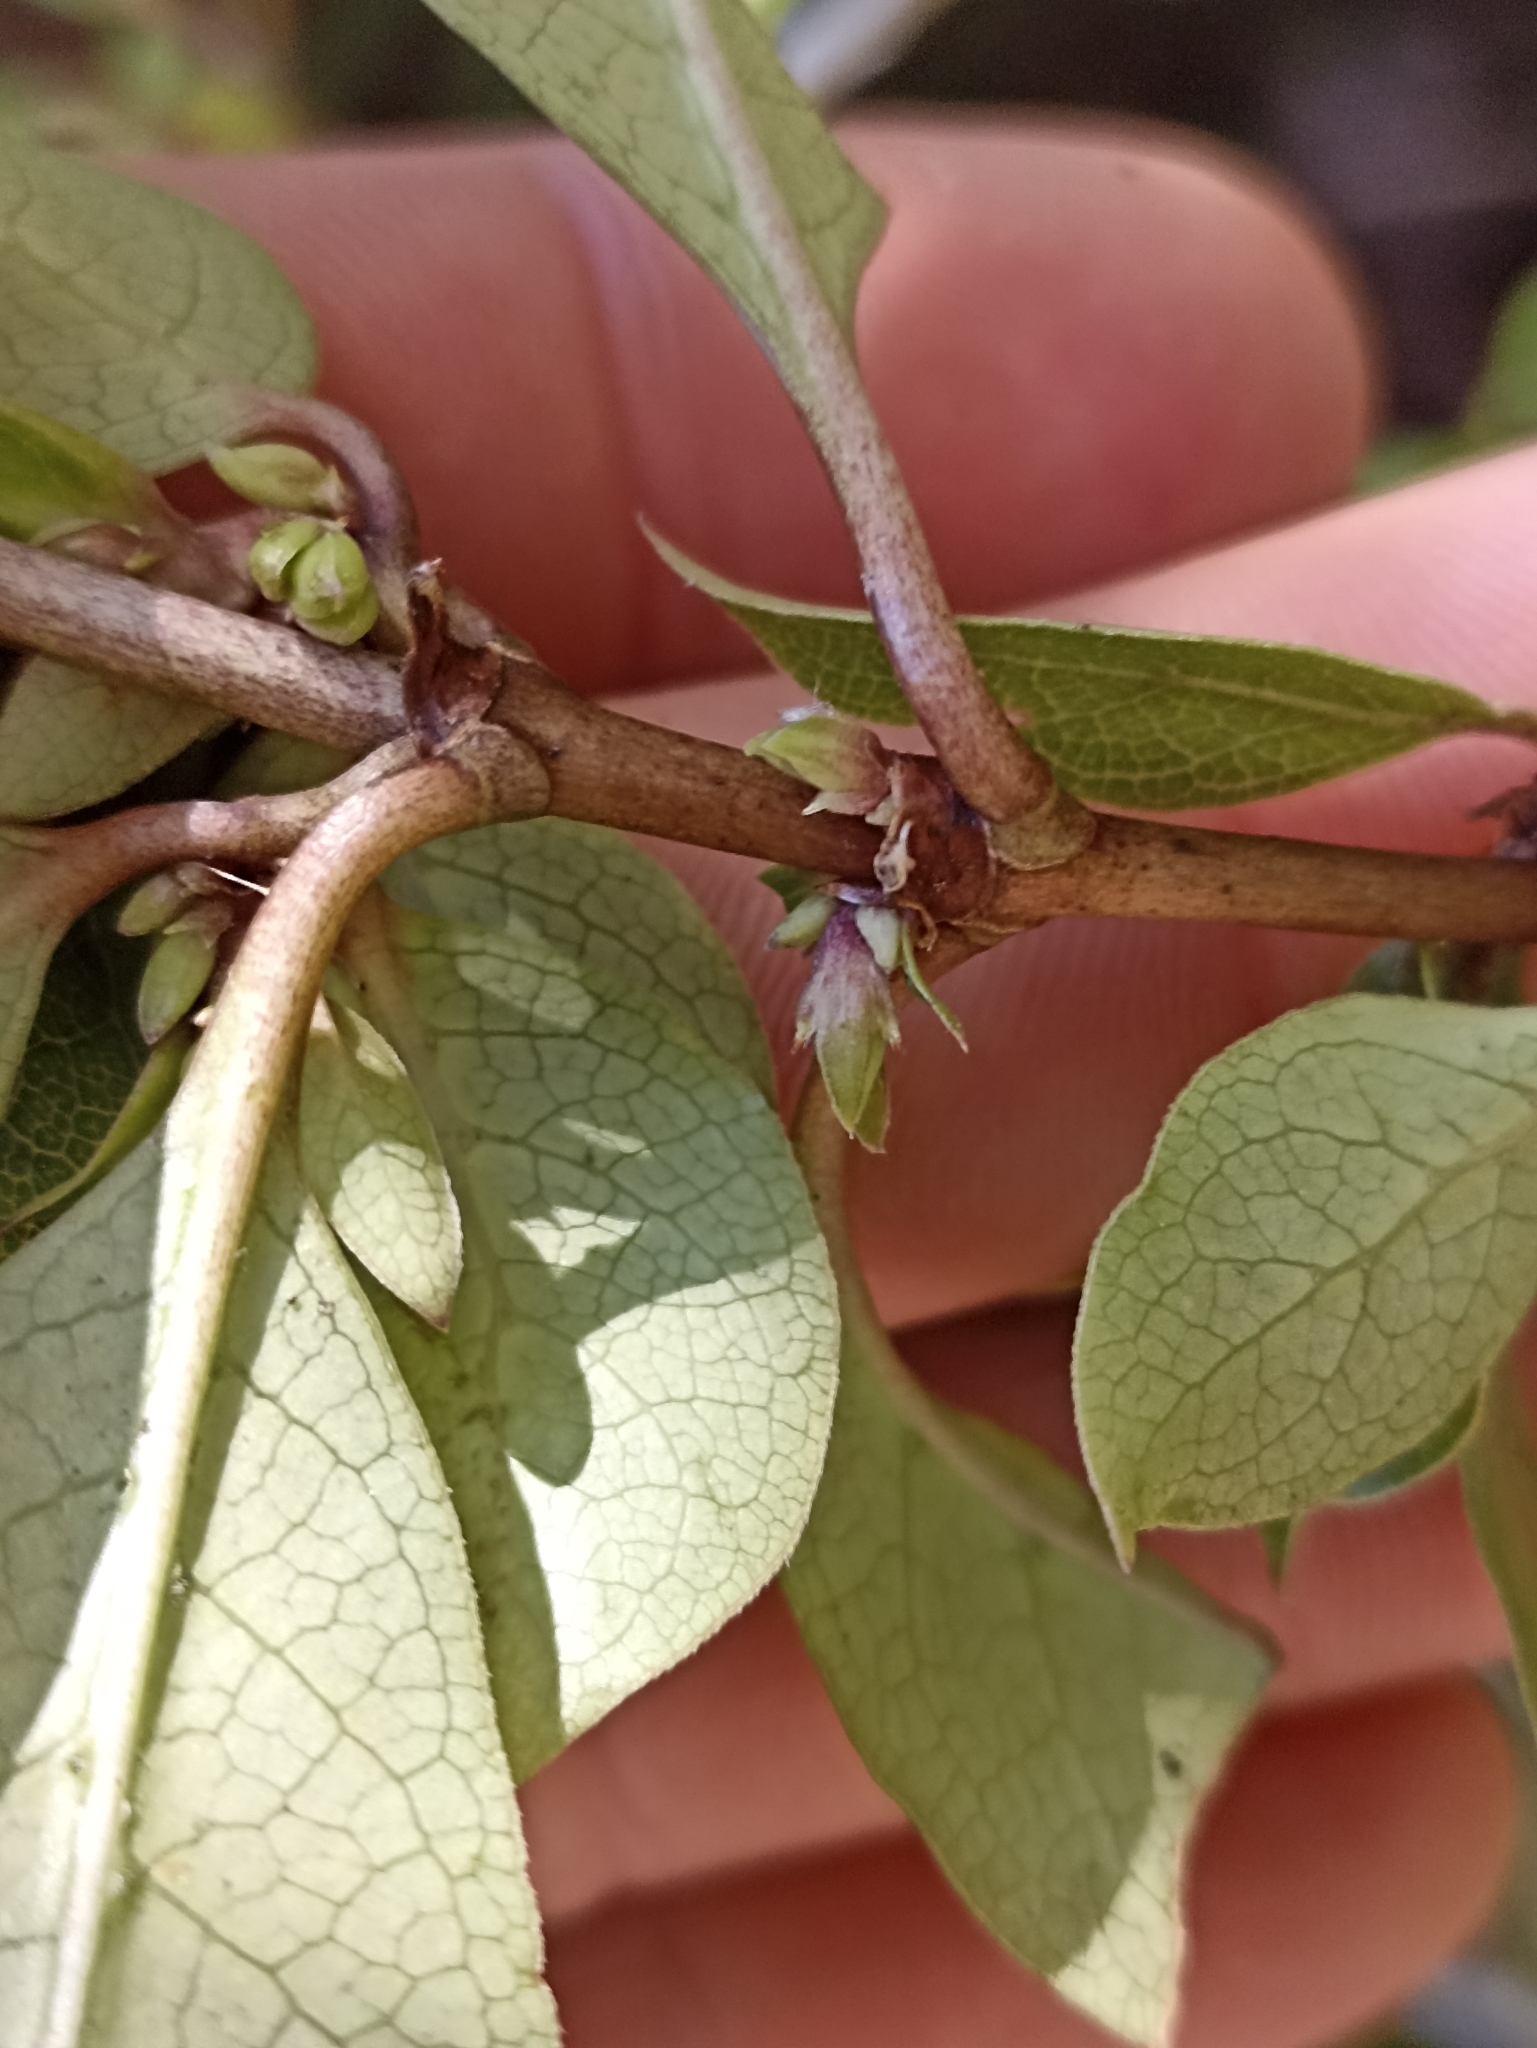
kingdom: Plantae
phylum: Tracheophyta
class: Magnoliopsida
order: Gentianales
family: Rubiaceae
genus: Coprosma
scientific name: Coprosma tenuifolia
